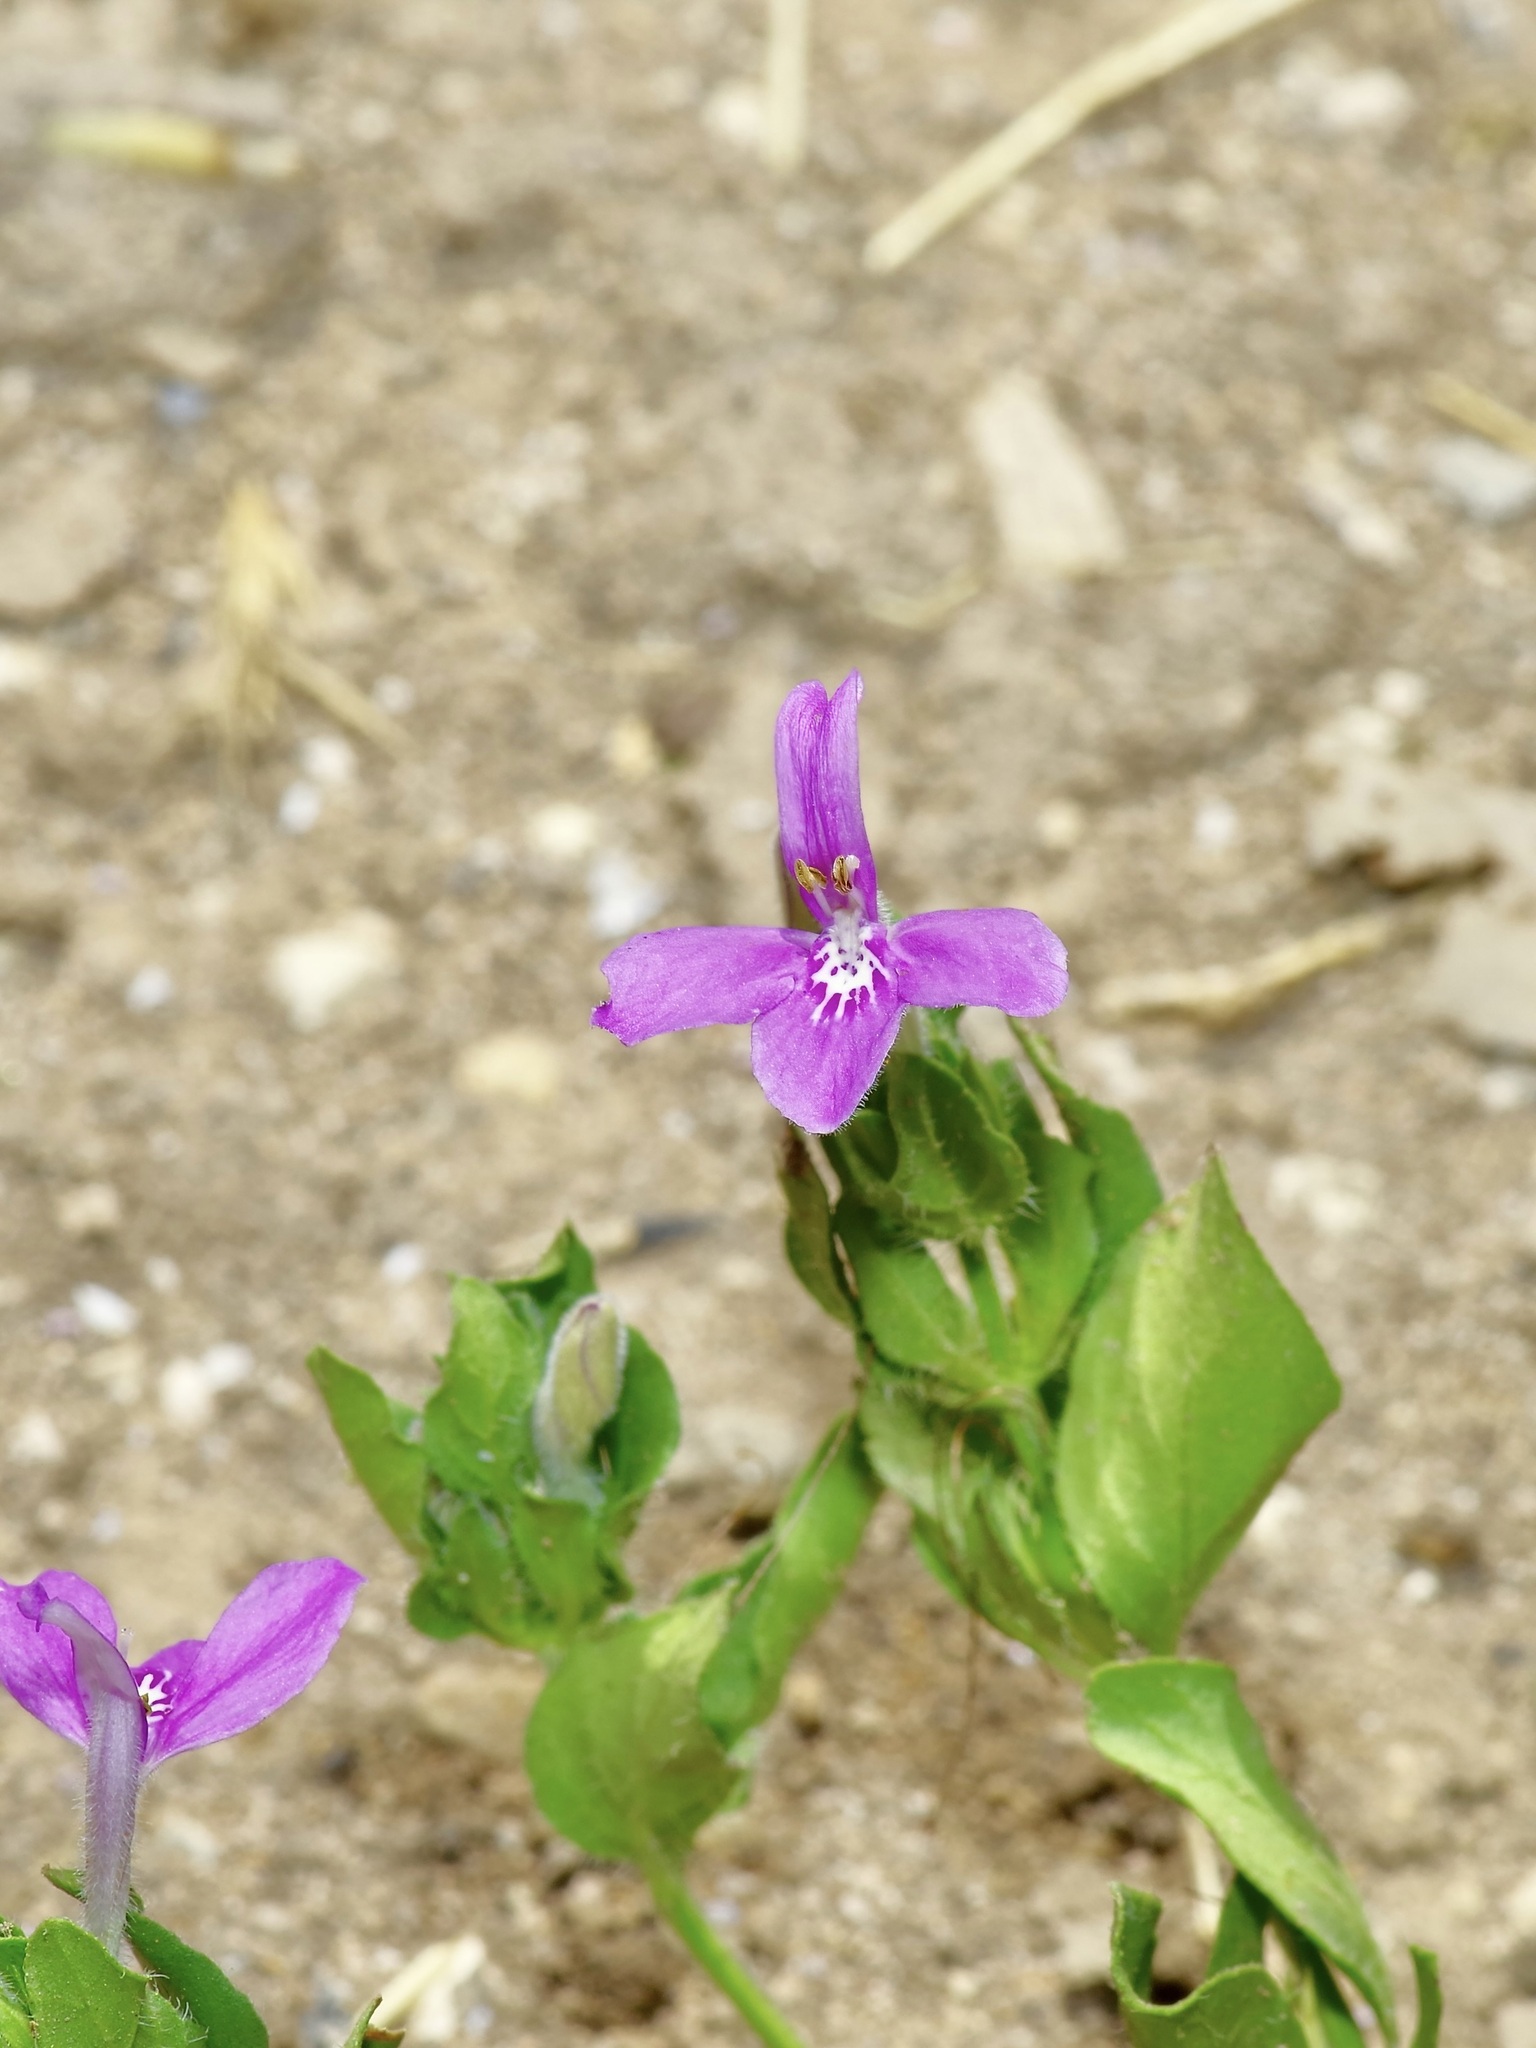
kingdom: Plantae
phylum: Tracheophyta
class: Magnoliopsida
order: Lamiales
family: Acanthaceae
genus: Justicia
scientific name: Justicia pilosella
